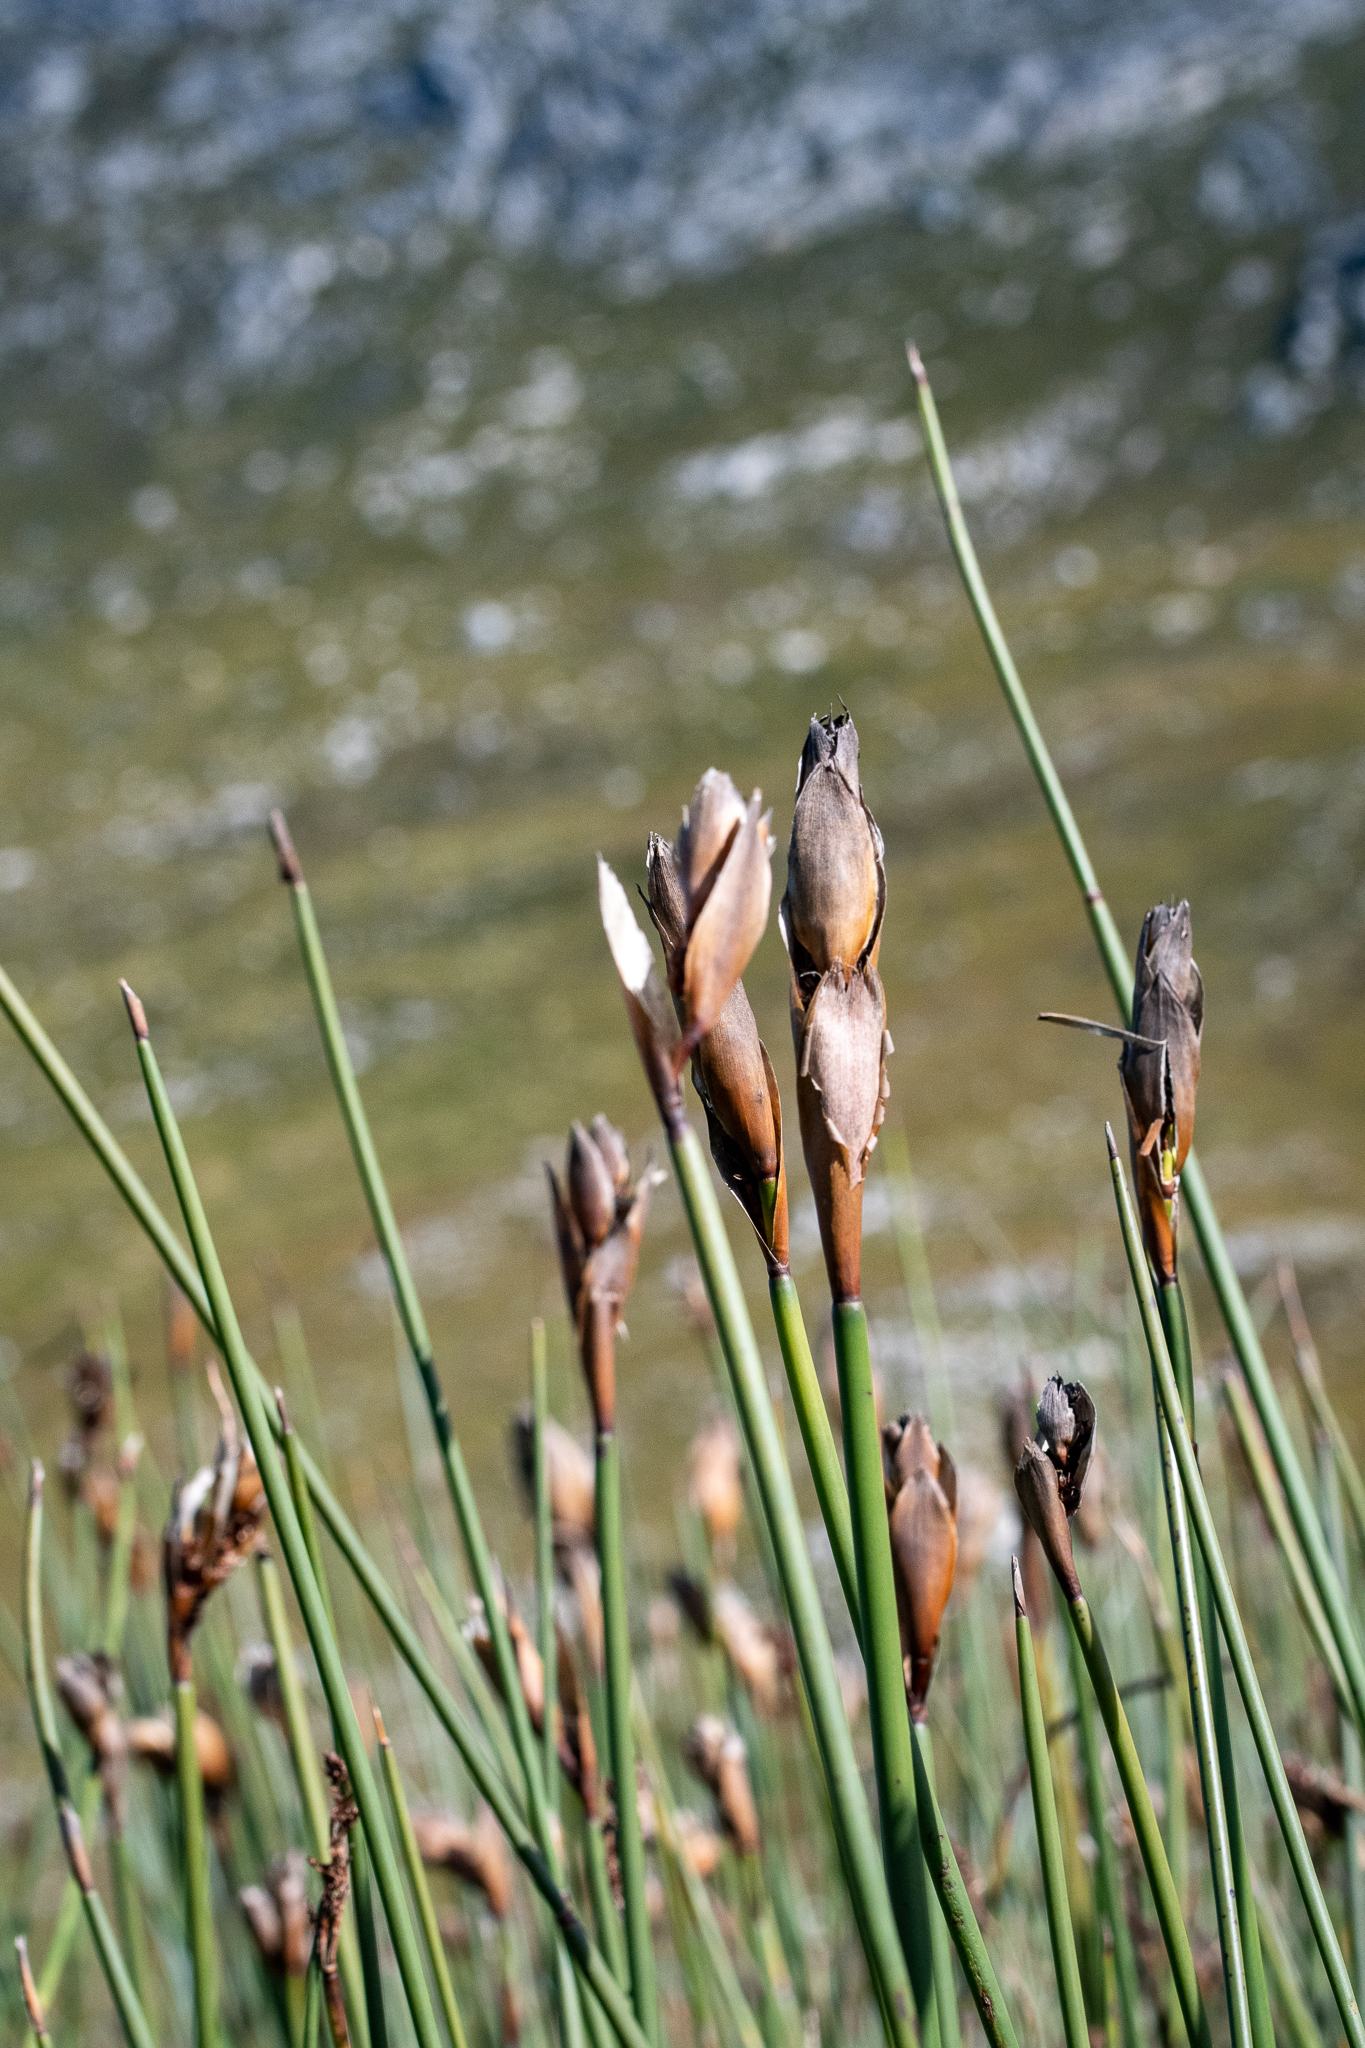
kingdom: Plantae
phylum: Tracheophyta
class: Liliopsida
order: Poales
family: Restionaceae
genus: Elegia
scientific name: Elegia mucronata
